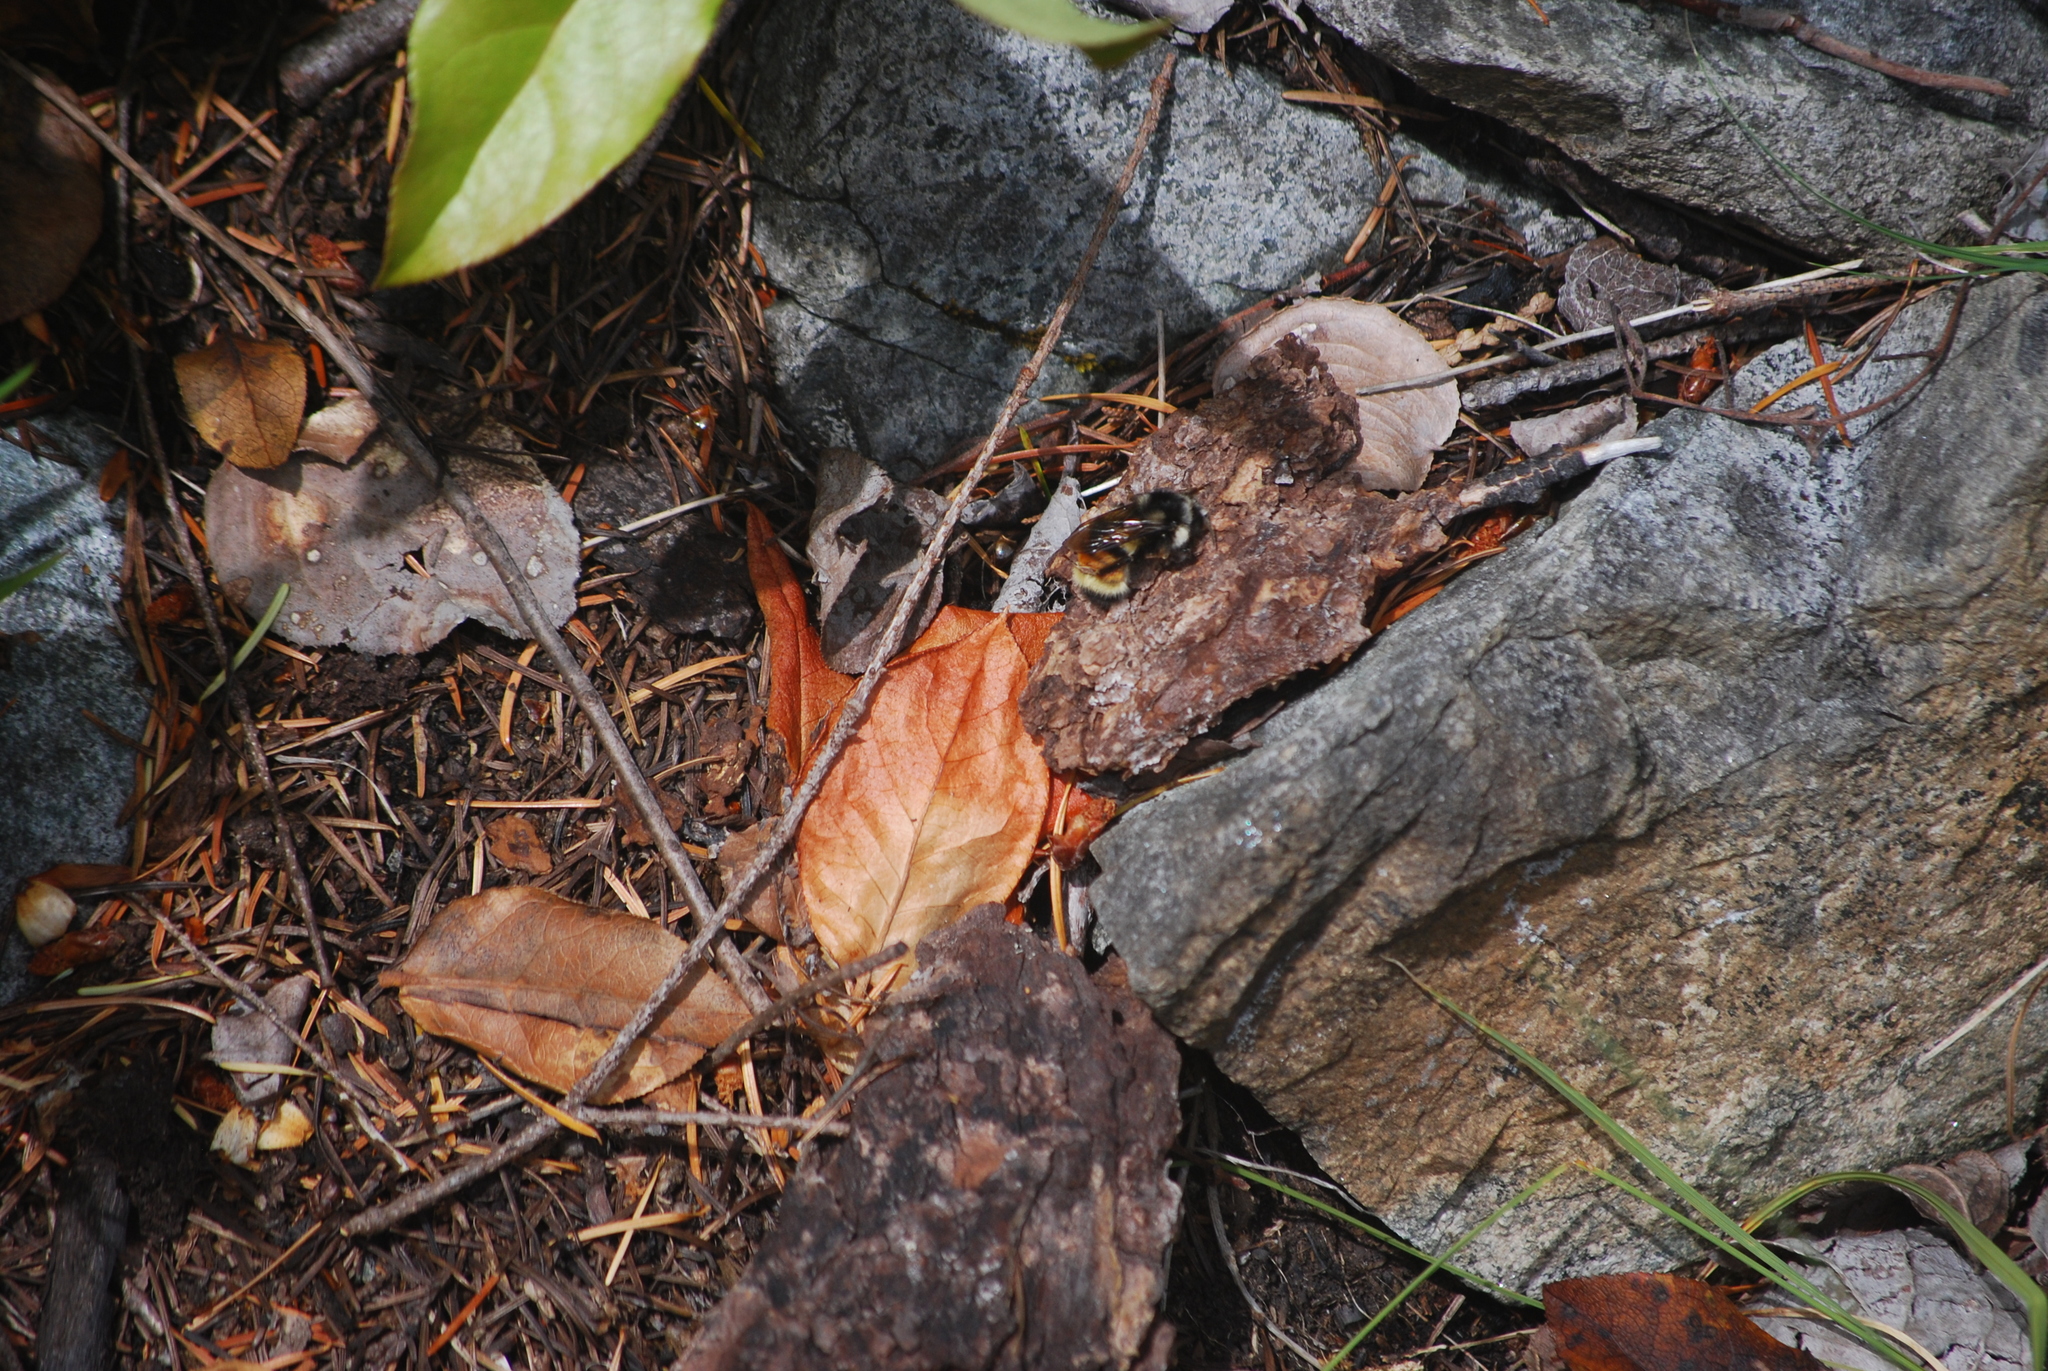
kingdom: Animalia
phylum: Arthropoda
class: Insecta
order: Hymenoptera
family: Apidae
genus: Bombus
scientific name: Bombus vancouverensis
